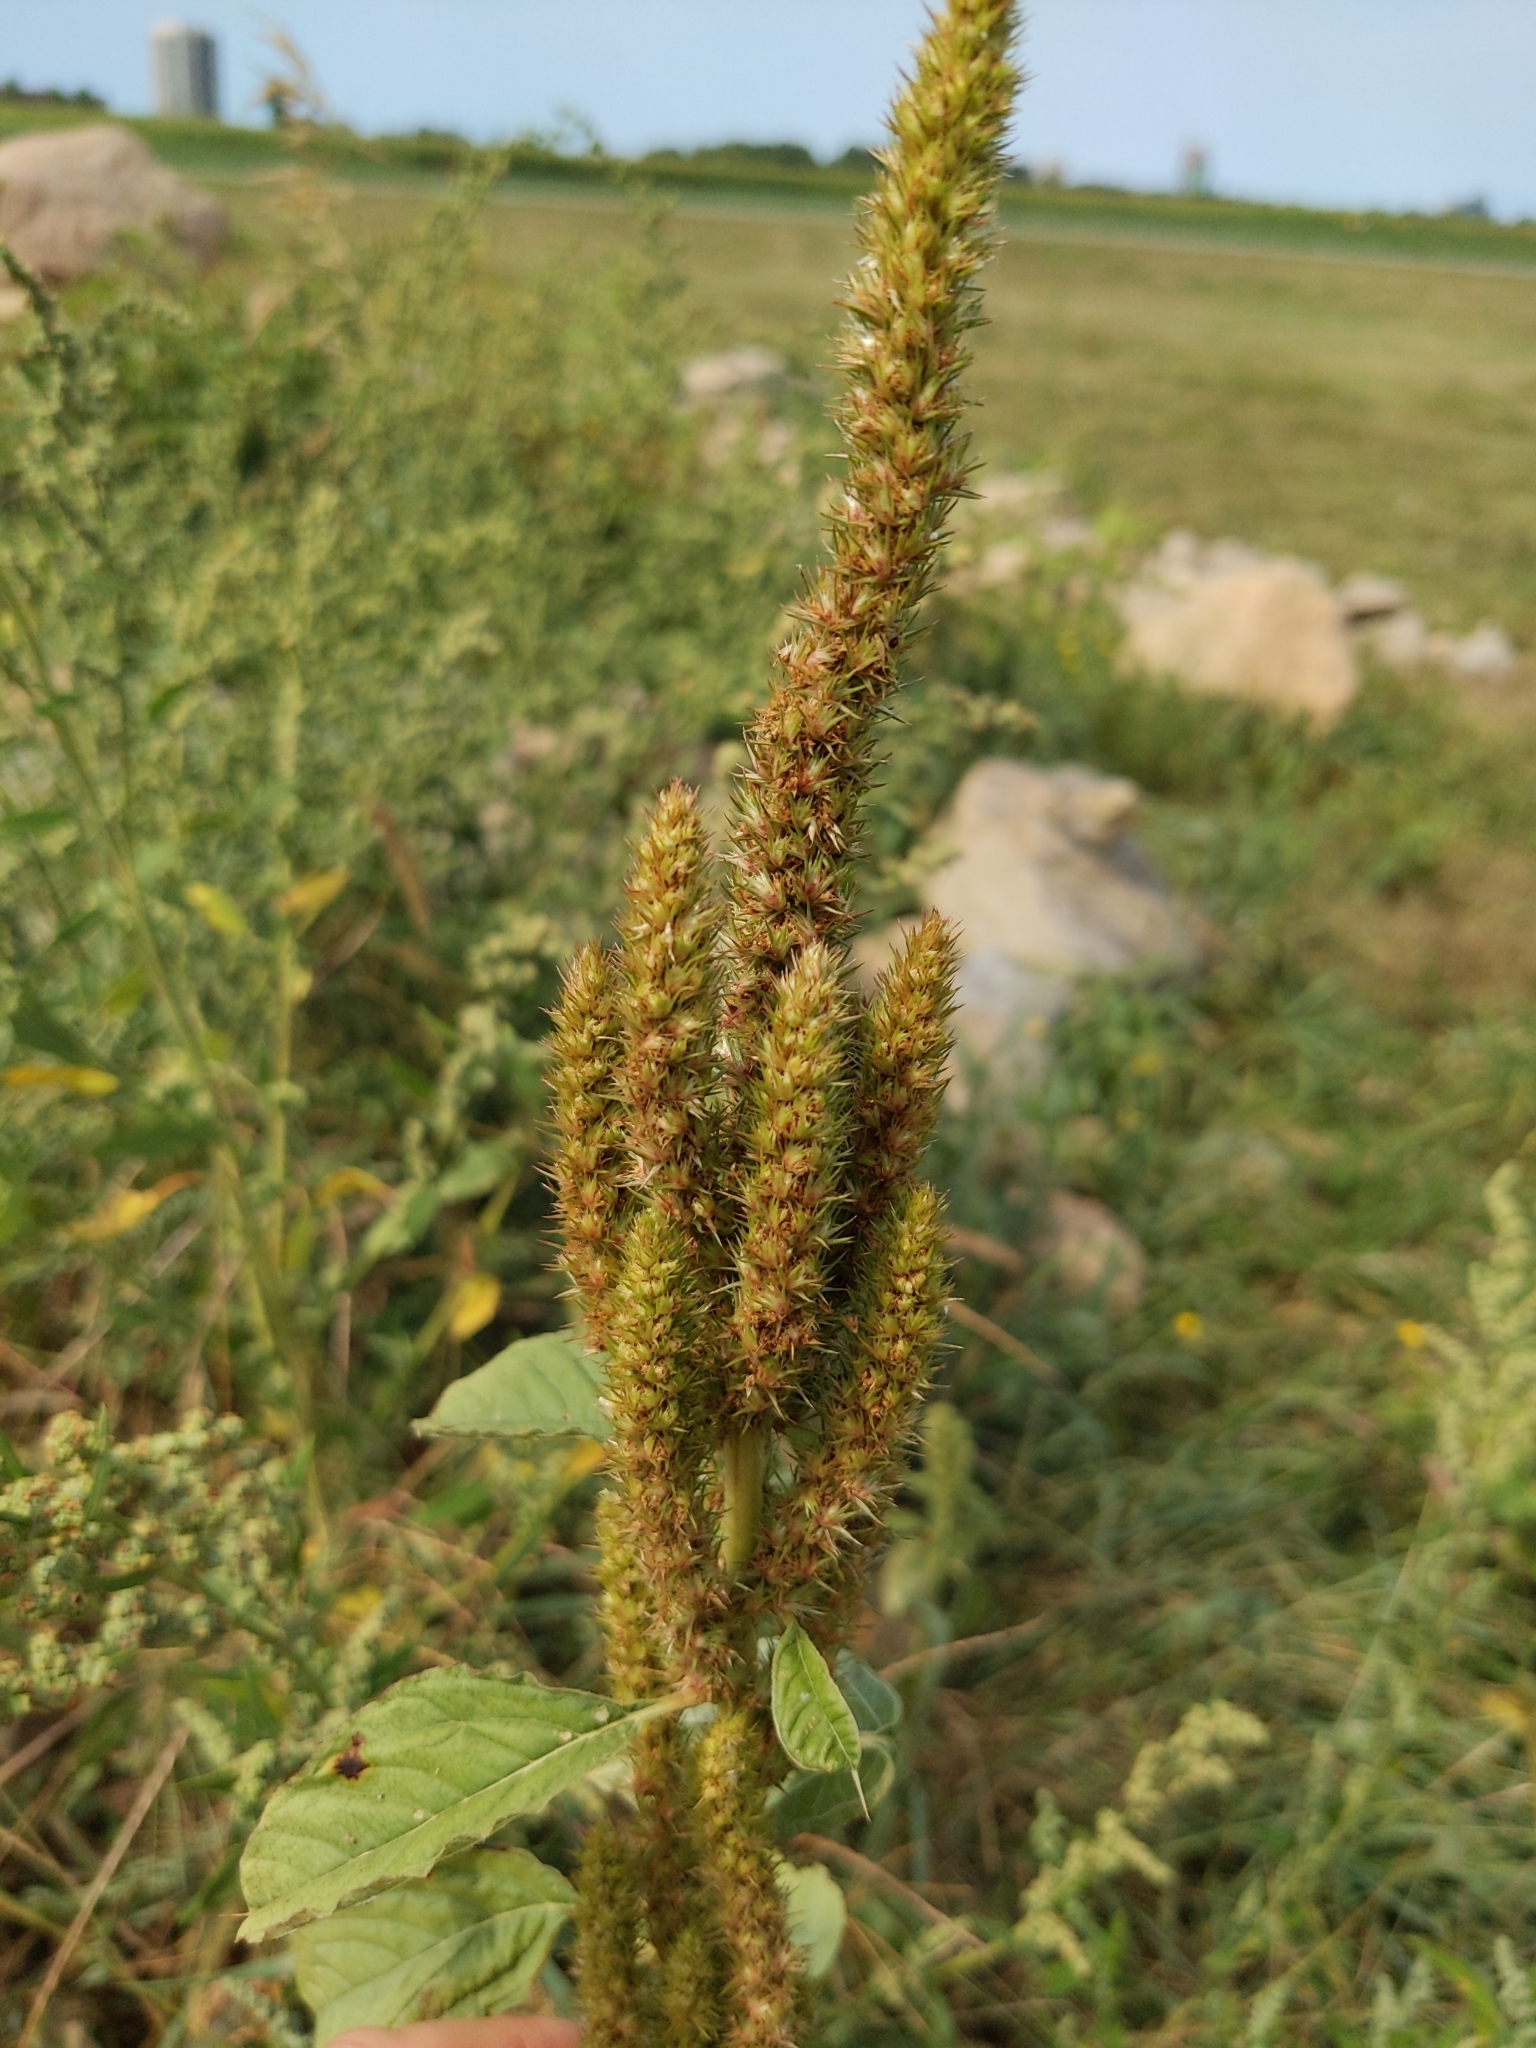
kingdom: Plantae
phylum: Tracheophyta
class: Magnoliopsida
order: Caryophyllales
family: Amaranthaceae
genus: Amaranthus
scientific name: Amaranthus powellii
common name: Powell's amaranth
